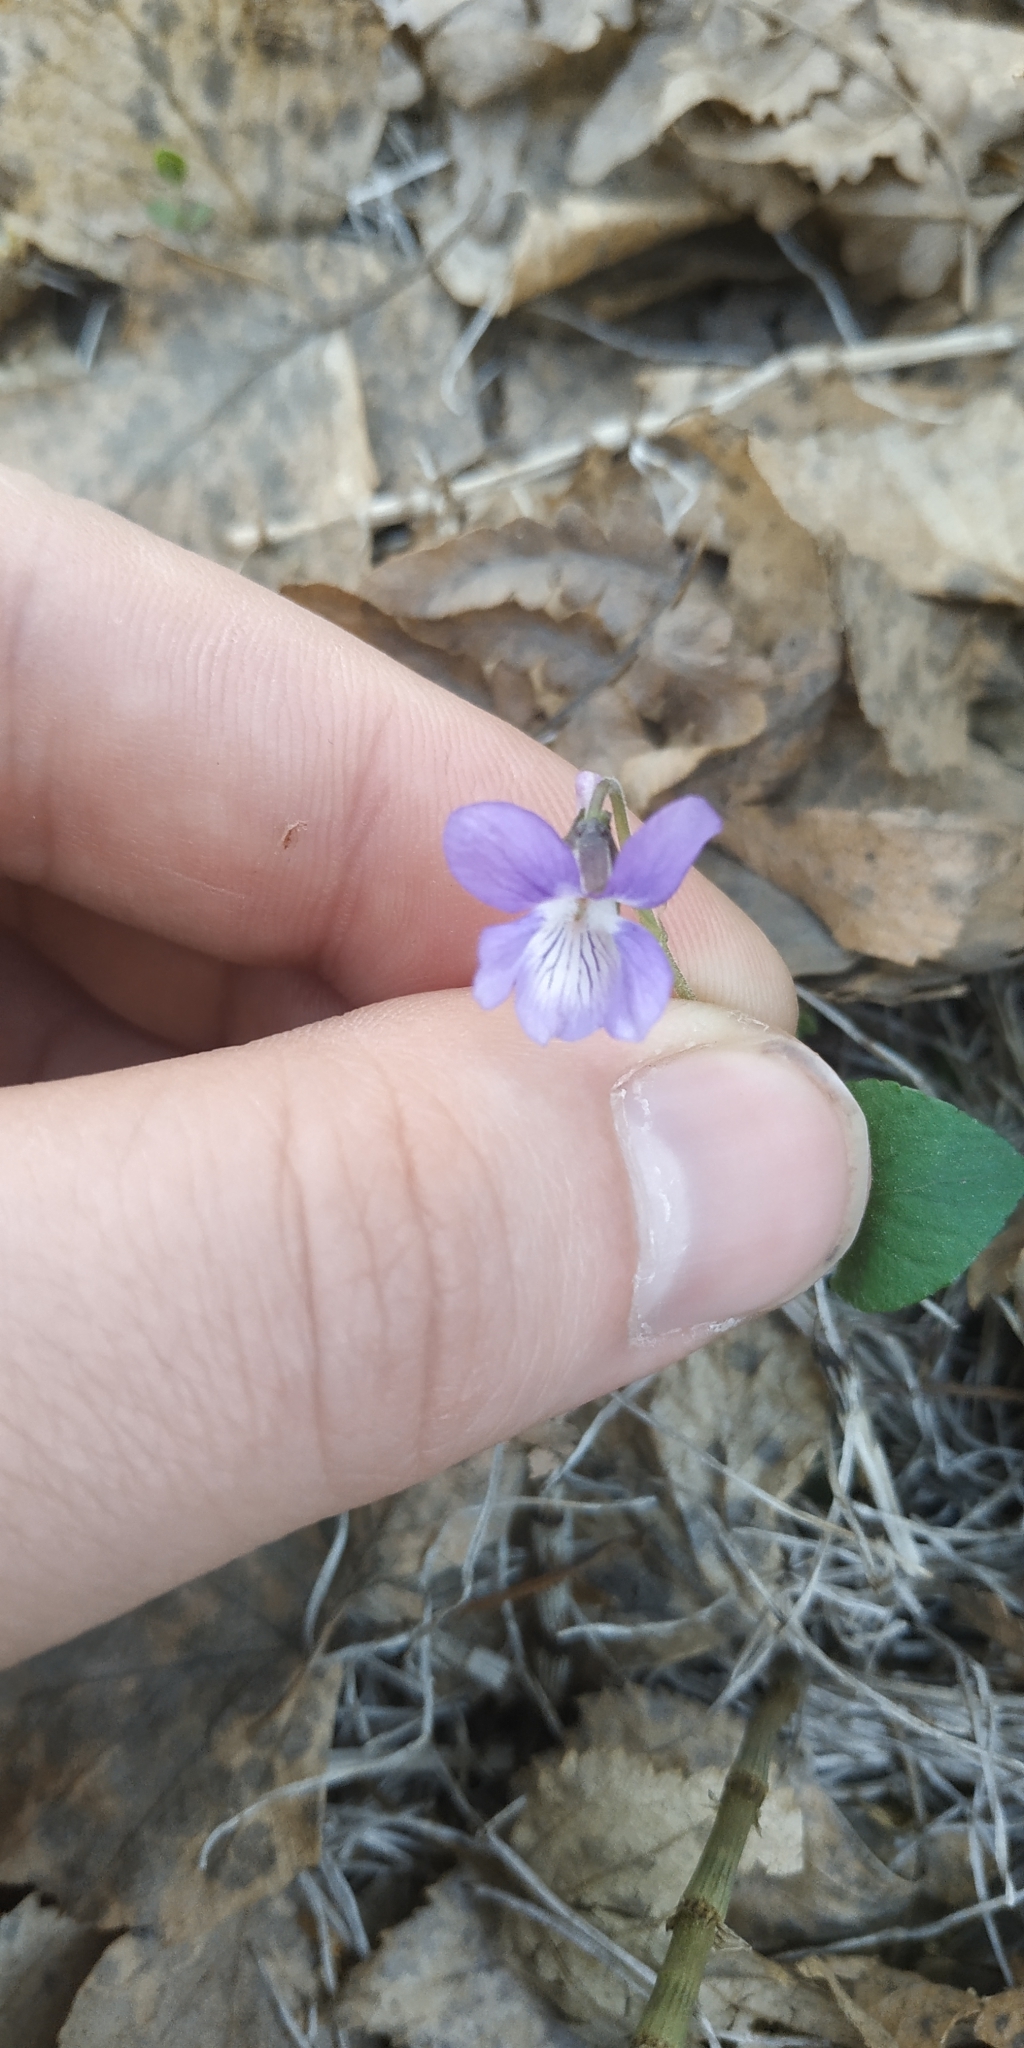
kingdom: Plantae
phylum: Tracheophyta
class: Magnoliopsida
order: Malpighiales
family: Violaceae
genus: Viola
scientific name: Viola rupestris
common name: Teesdale violet
